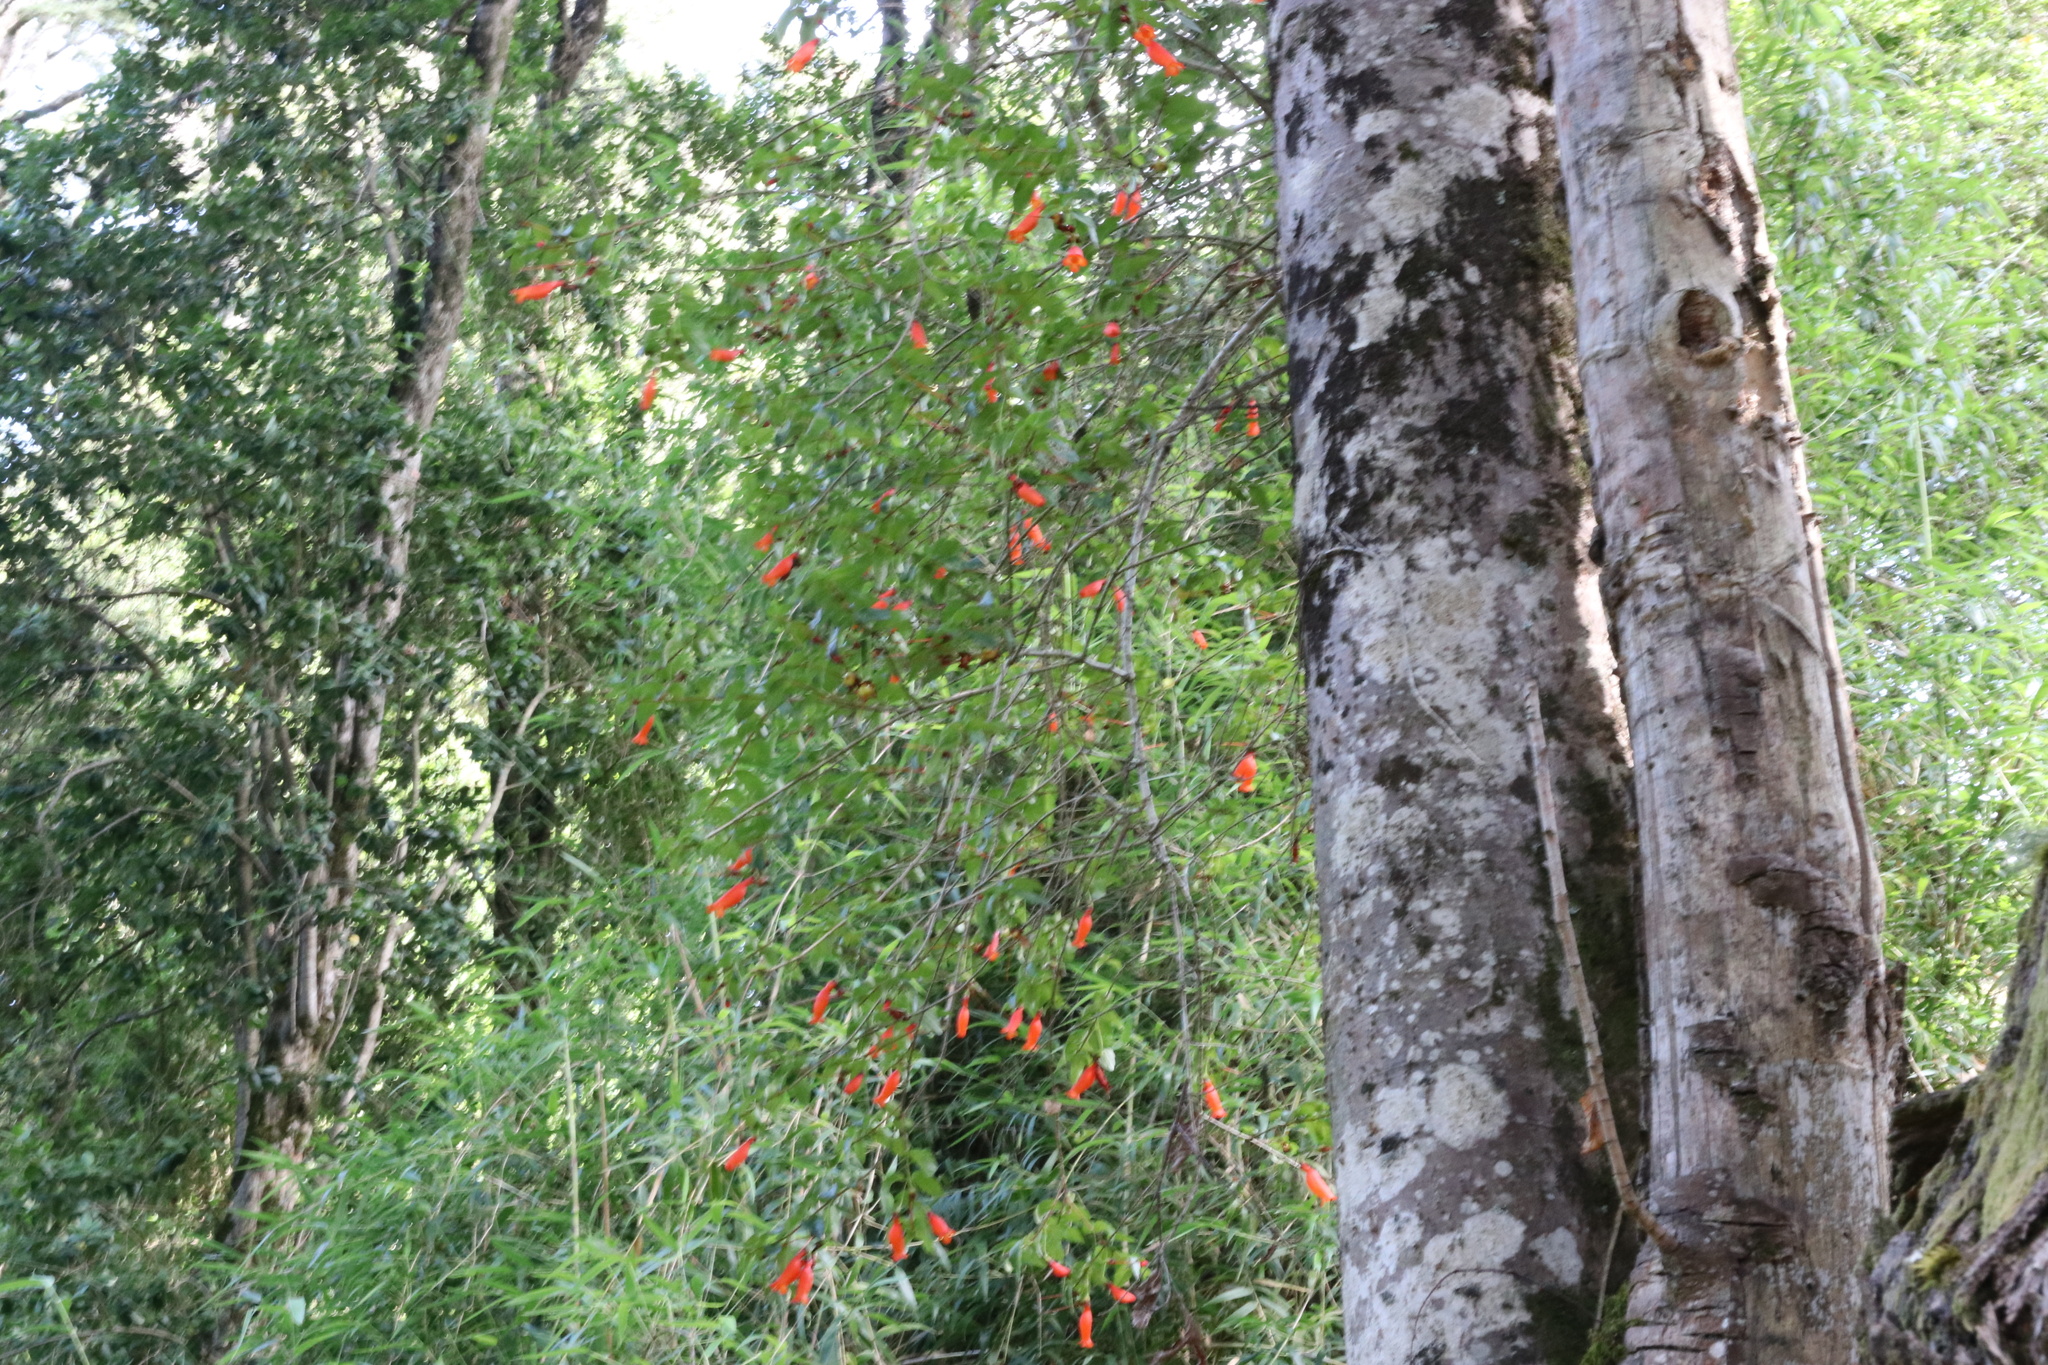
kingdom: Plantae
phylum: Tracheophyta
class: Magnoliopsida
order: Lamiales
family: Gesneriaceae
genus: Mitraria
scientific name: Mitraria coccinea
